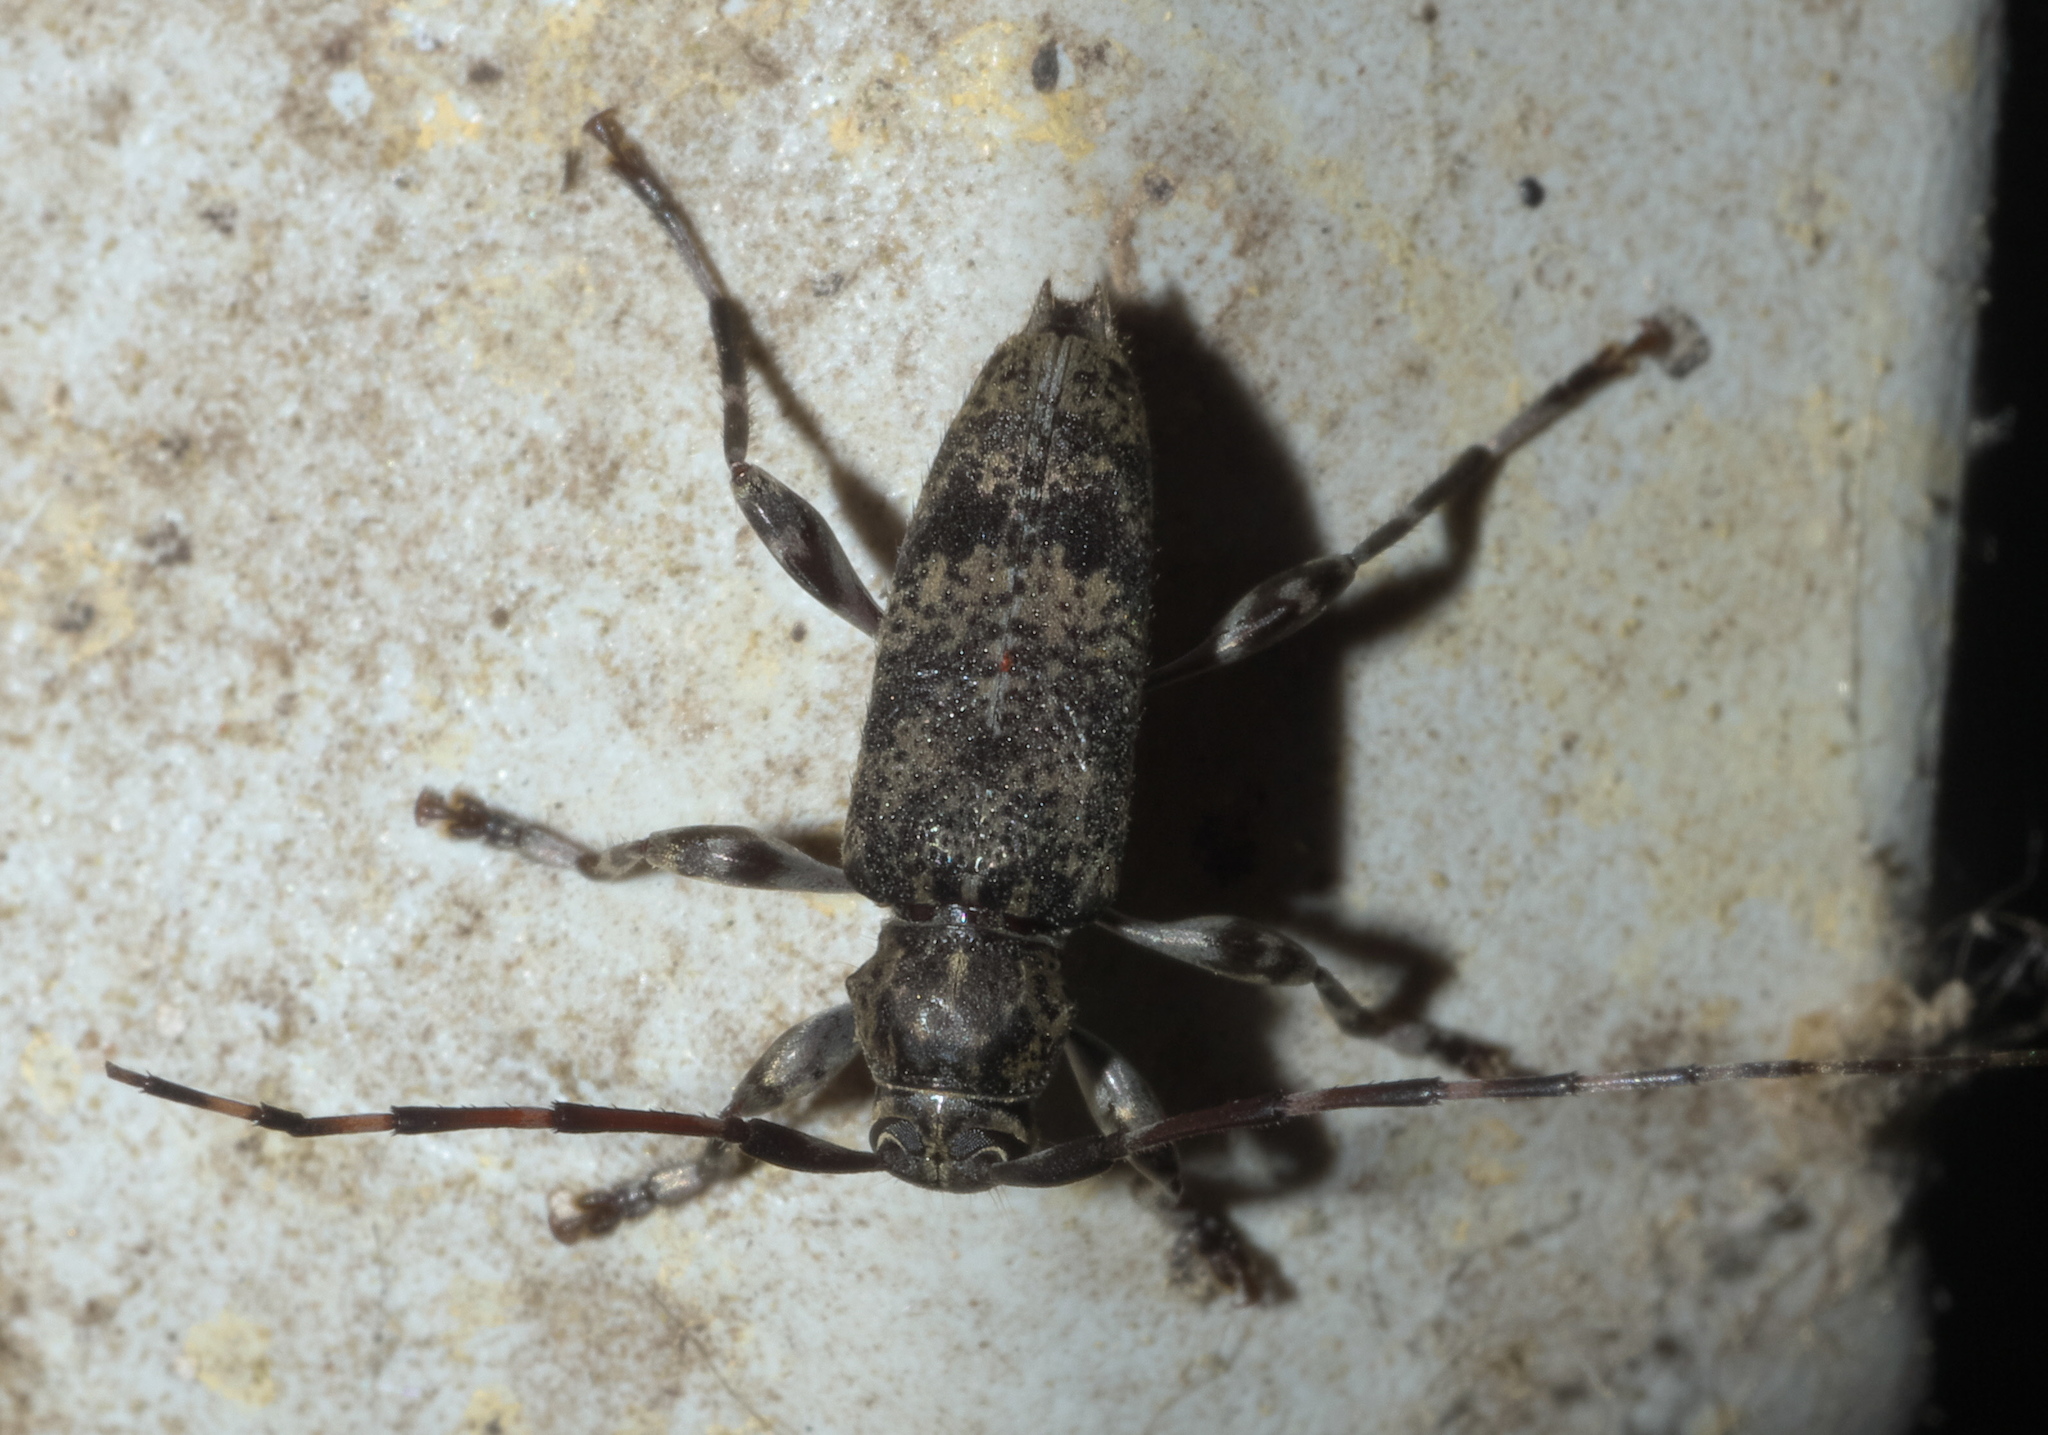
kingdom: Animalia
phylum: Arthropoda
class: Insecta
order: Coleoptera
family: Cerambycidae
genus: Graphisurus
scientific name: Graphisurus fasciatus
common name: Banded graphisurus
